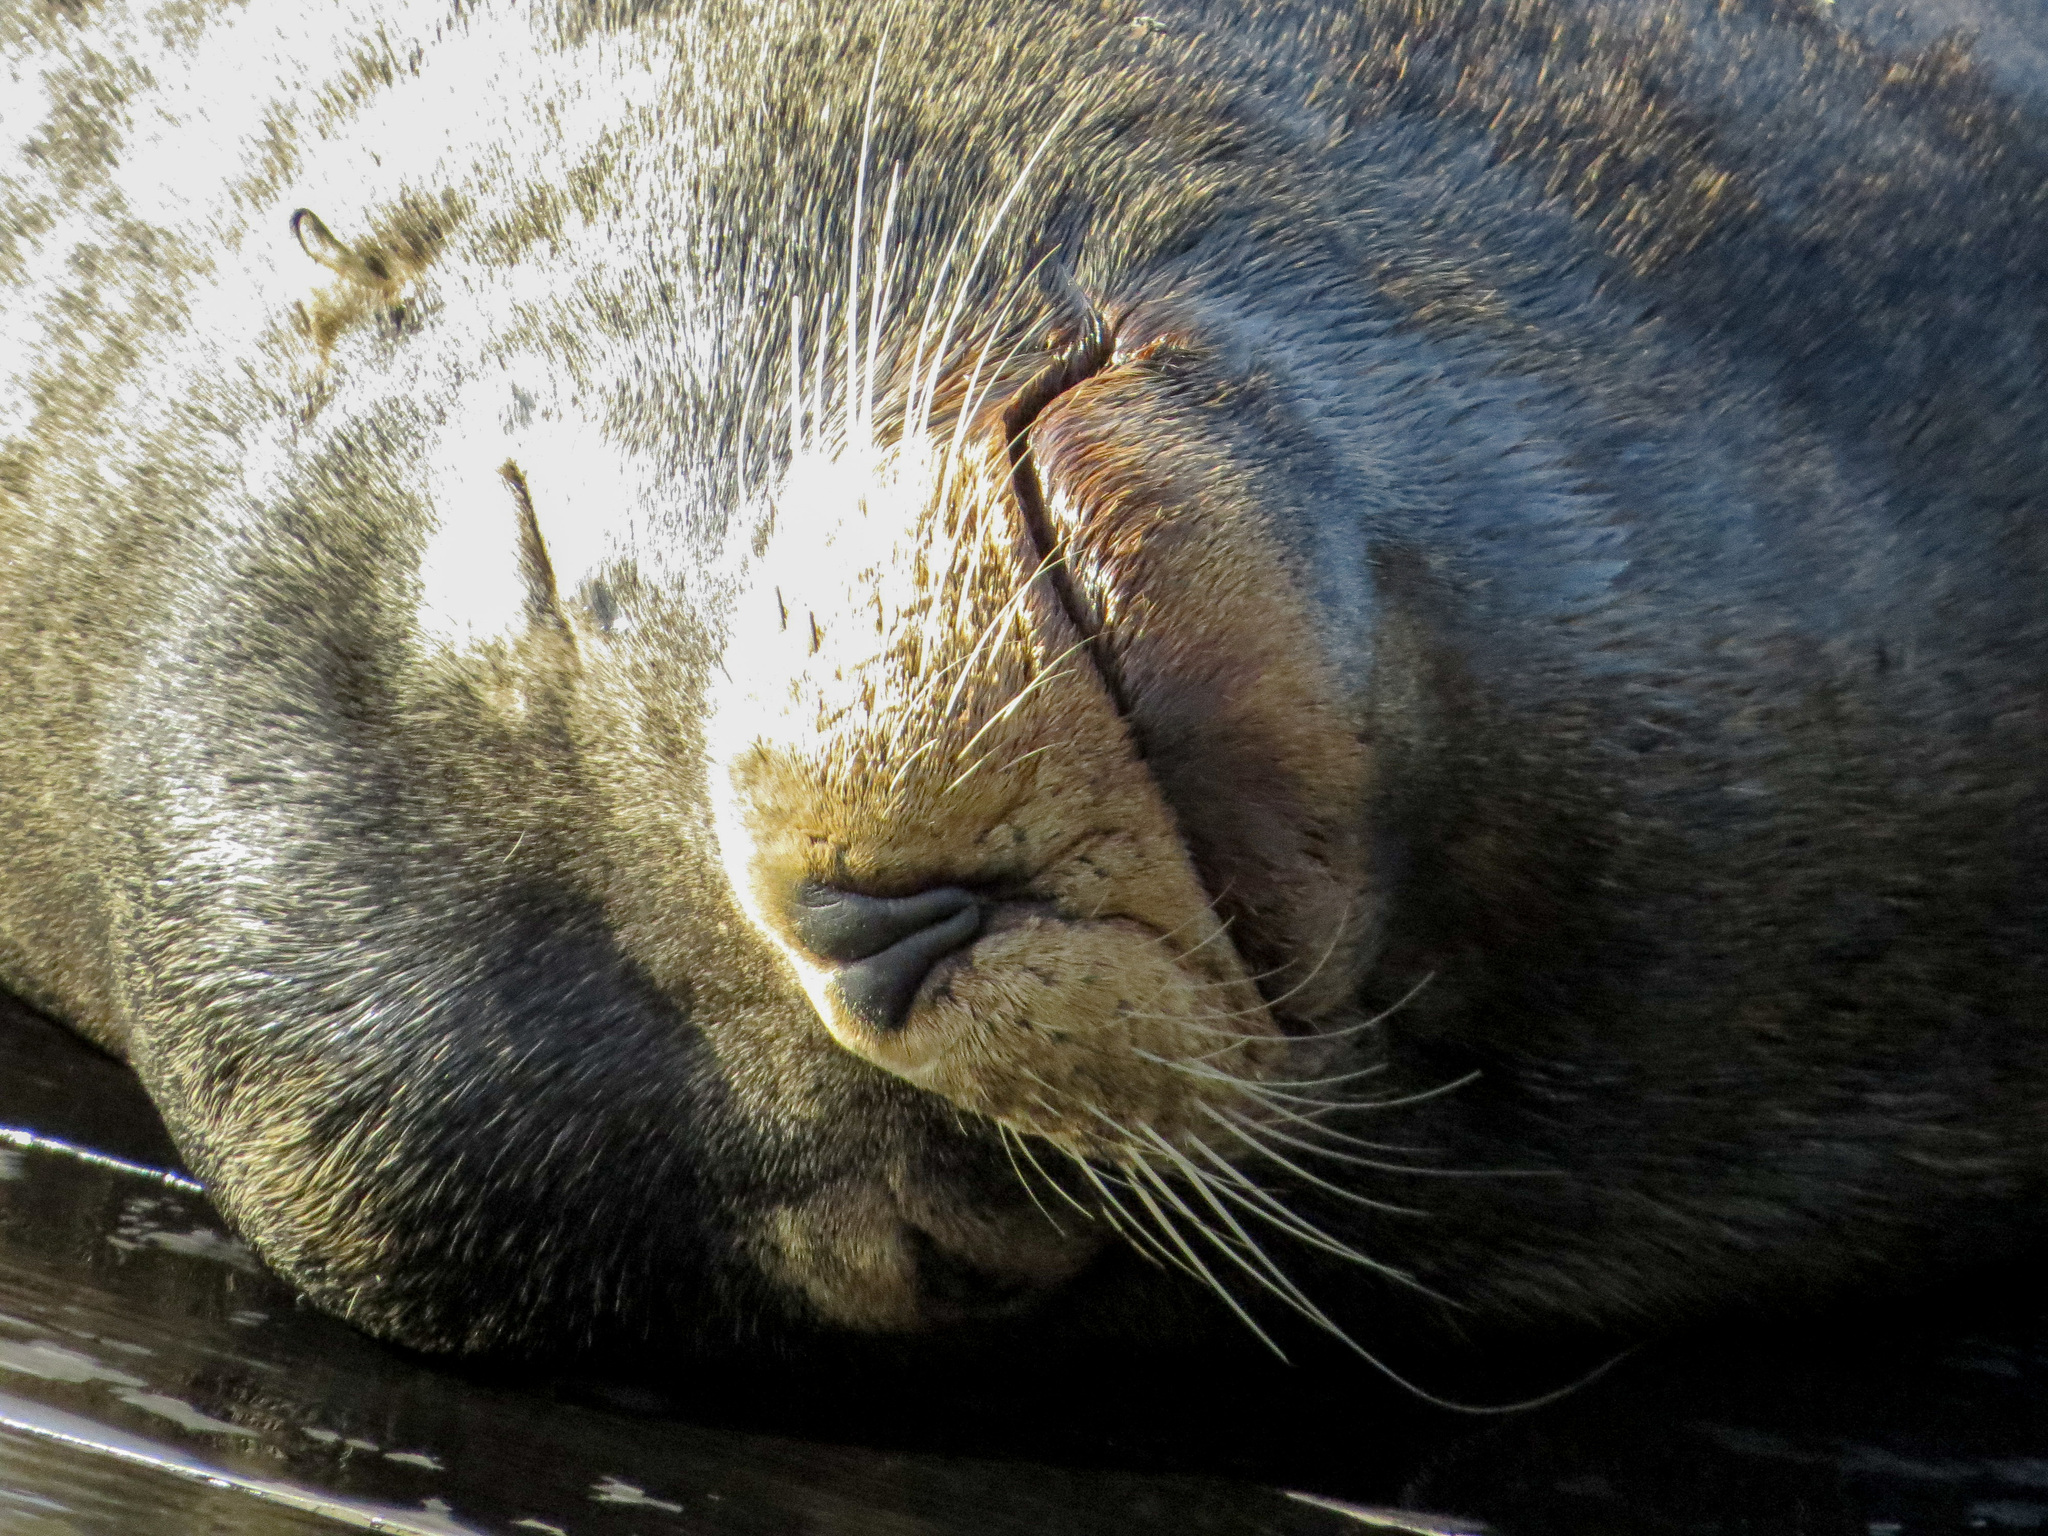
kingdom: Animalia
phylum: Chordata
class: Mammalia
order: Carnivora
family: Otariidae
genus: Zalophus
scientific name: Zalophus californianus
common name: California sea lion
